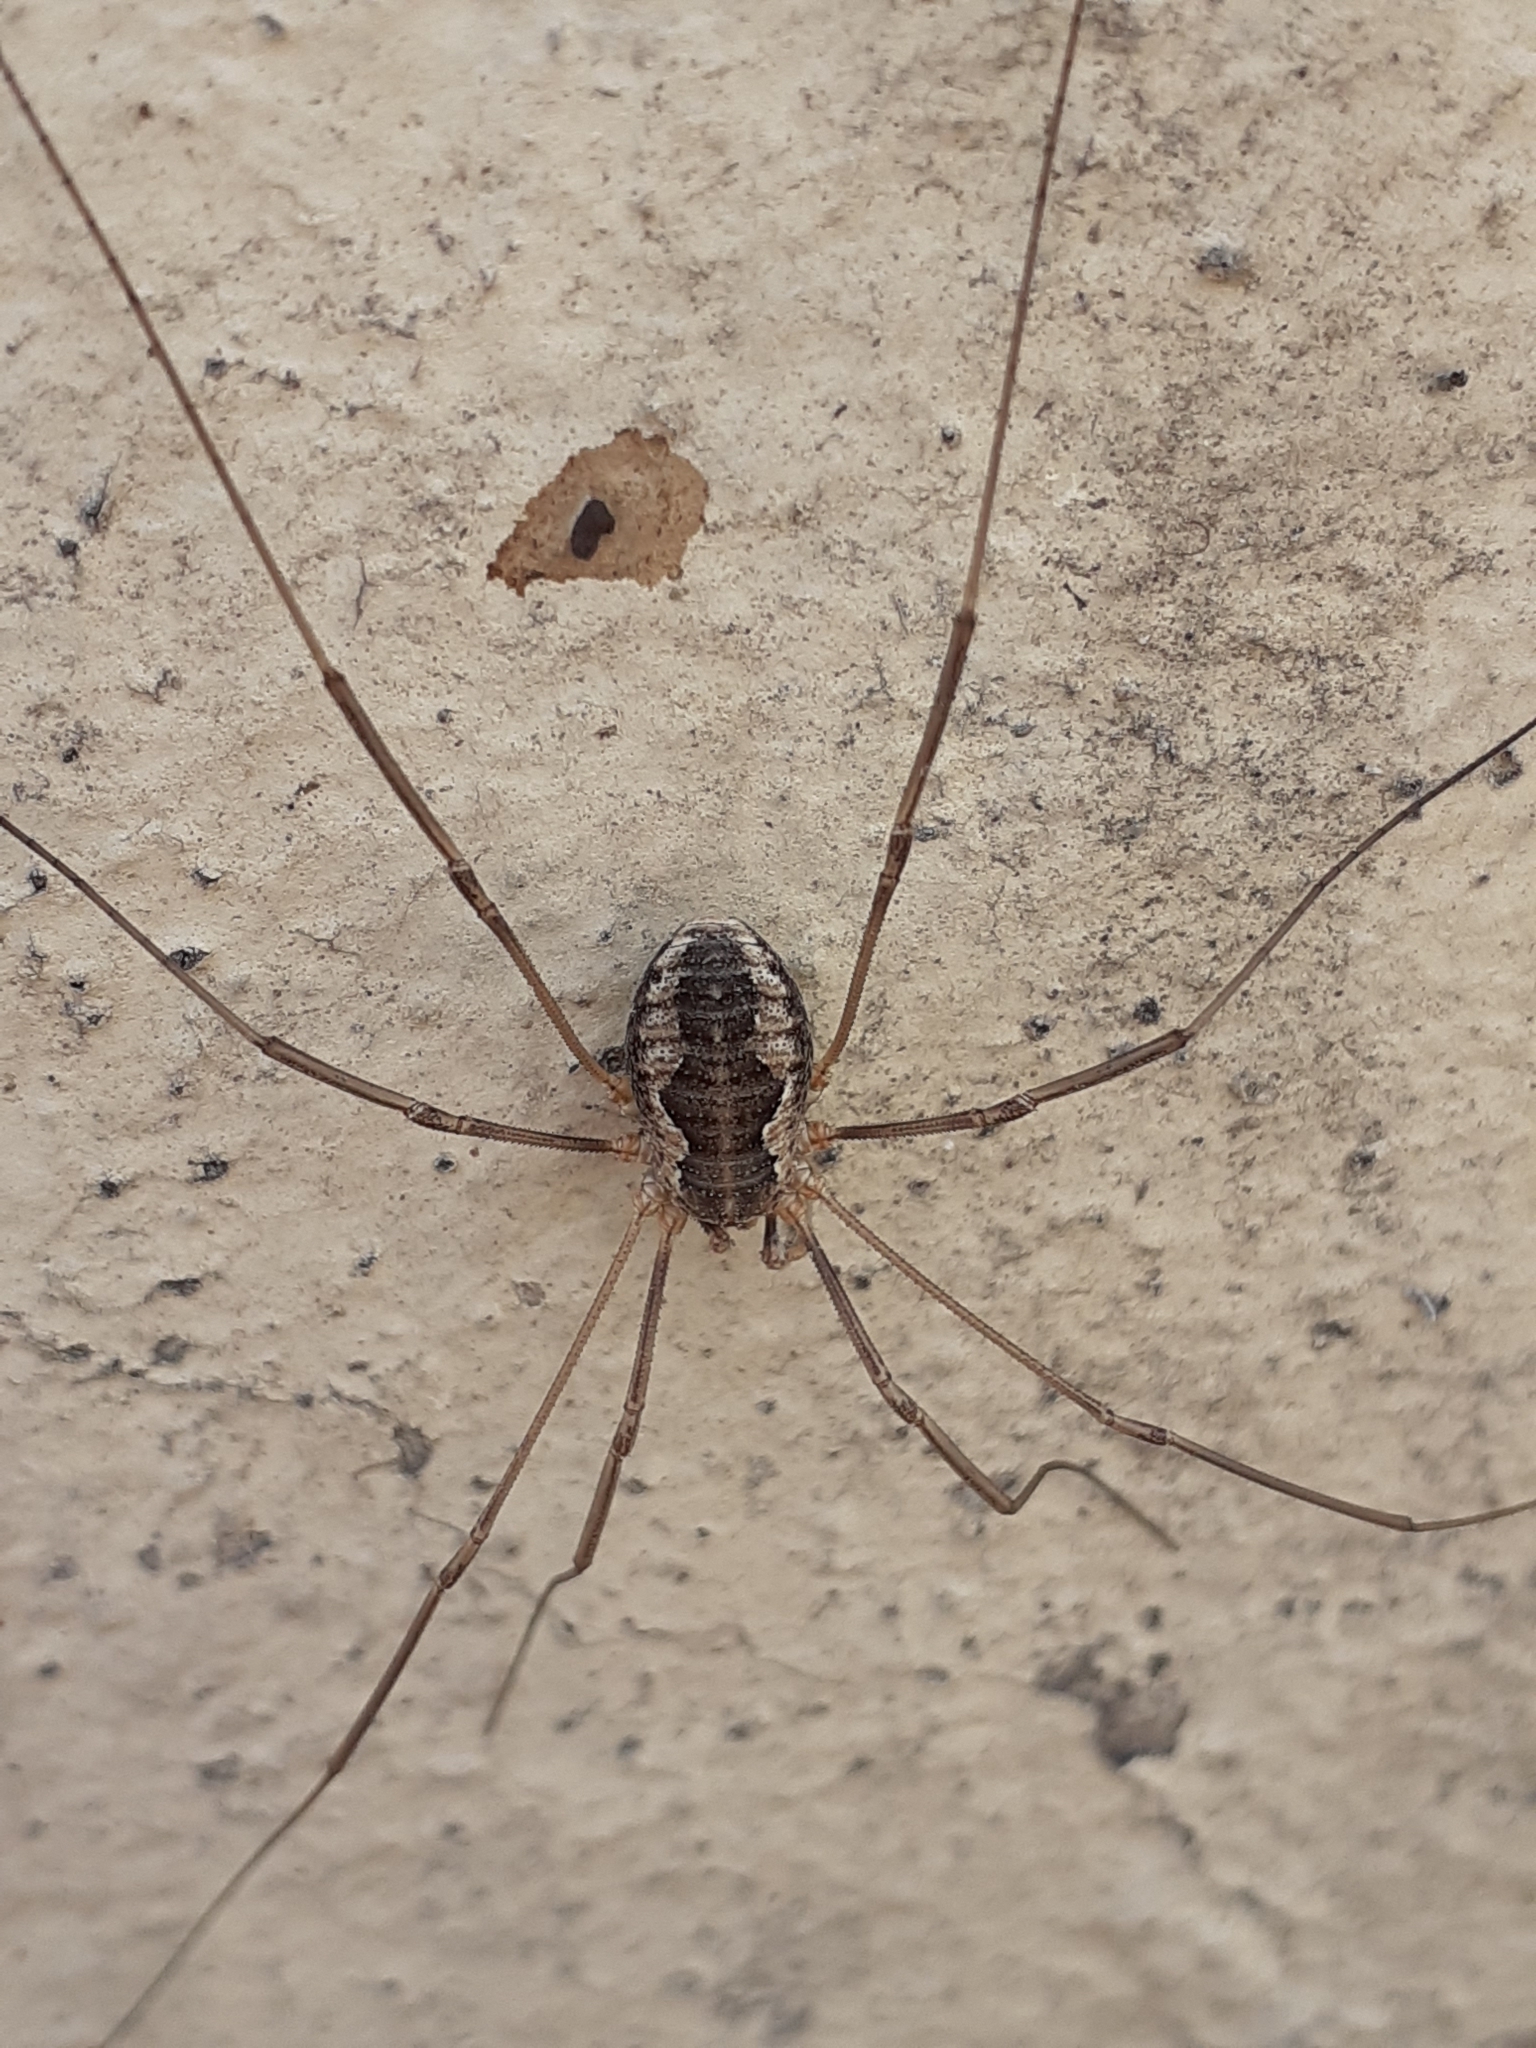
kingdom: Animalia
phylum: Arthropoda
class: Arachnida
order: Opiliones
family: Phalangiidae
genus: Phalangium
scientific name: Phalangium opilio
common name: Daddy longleg
